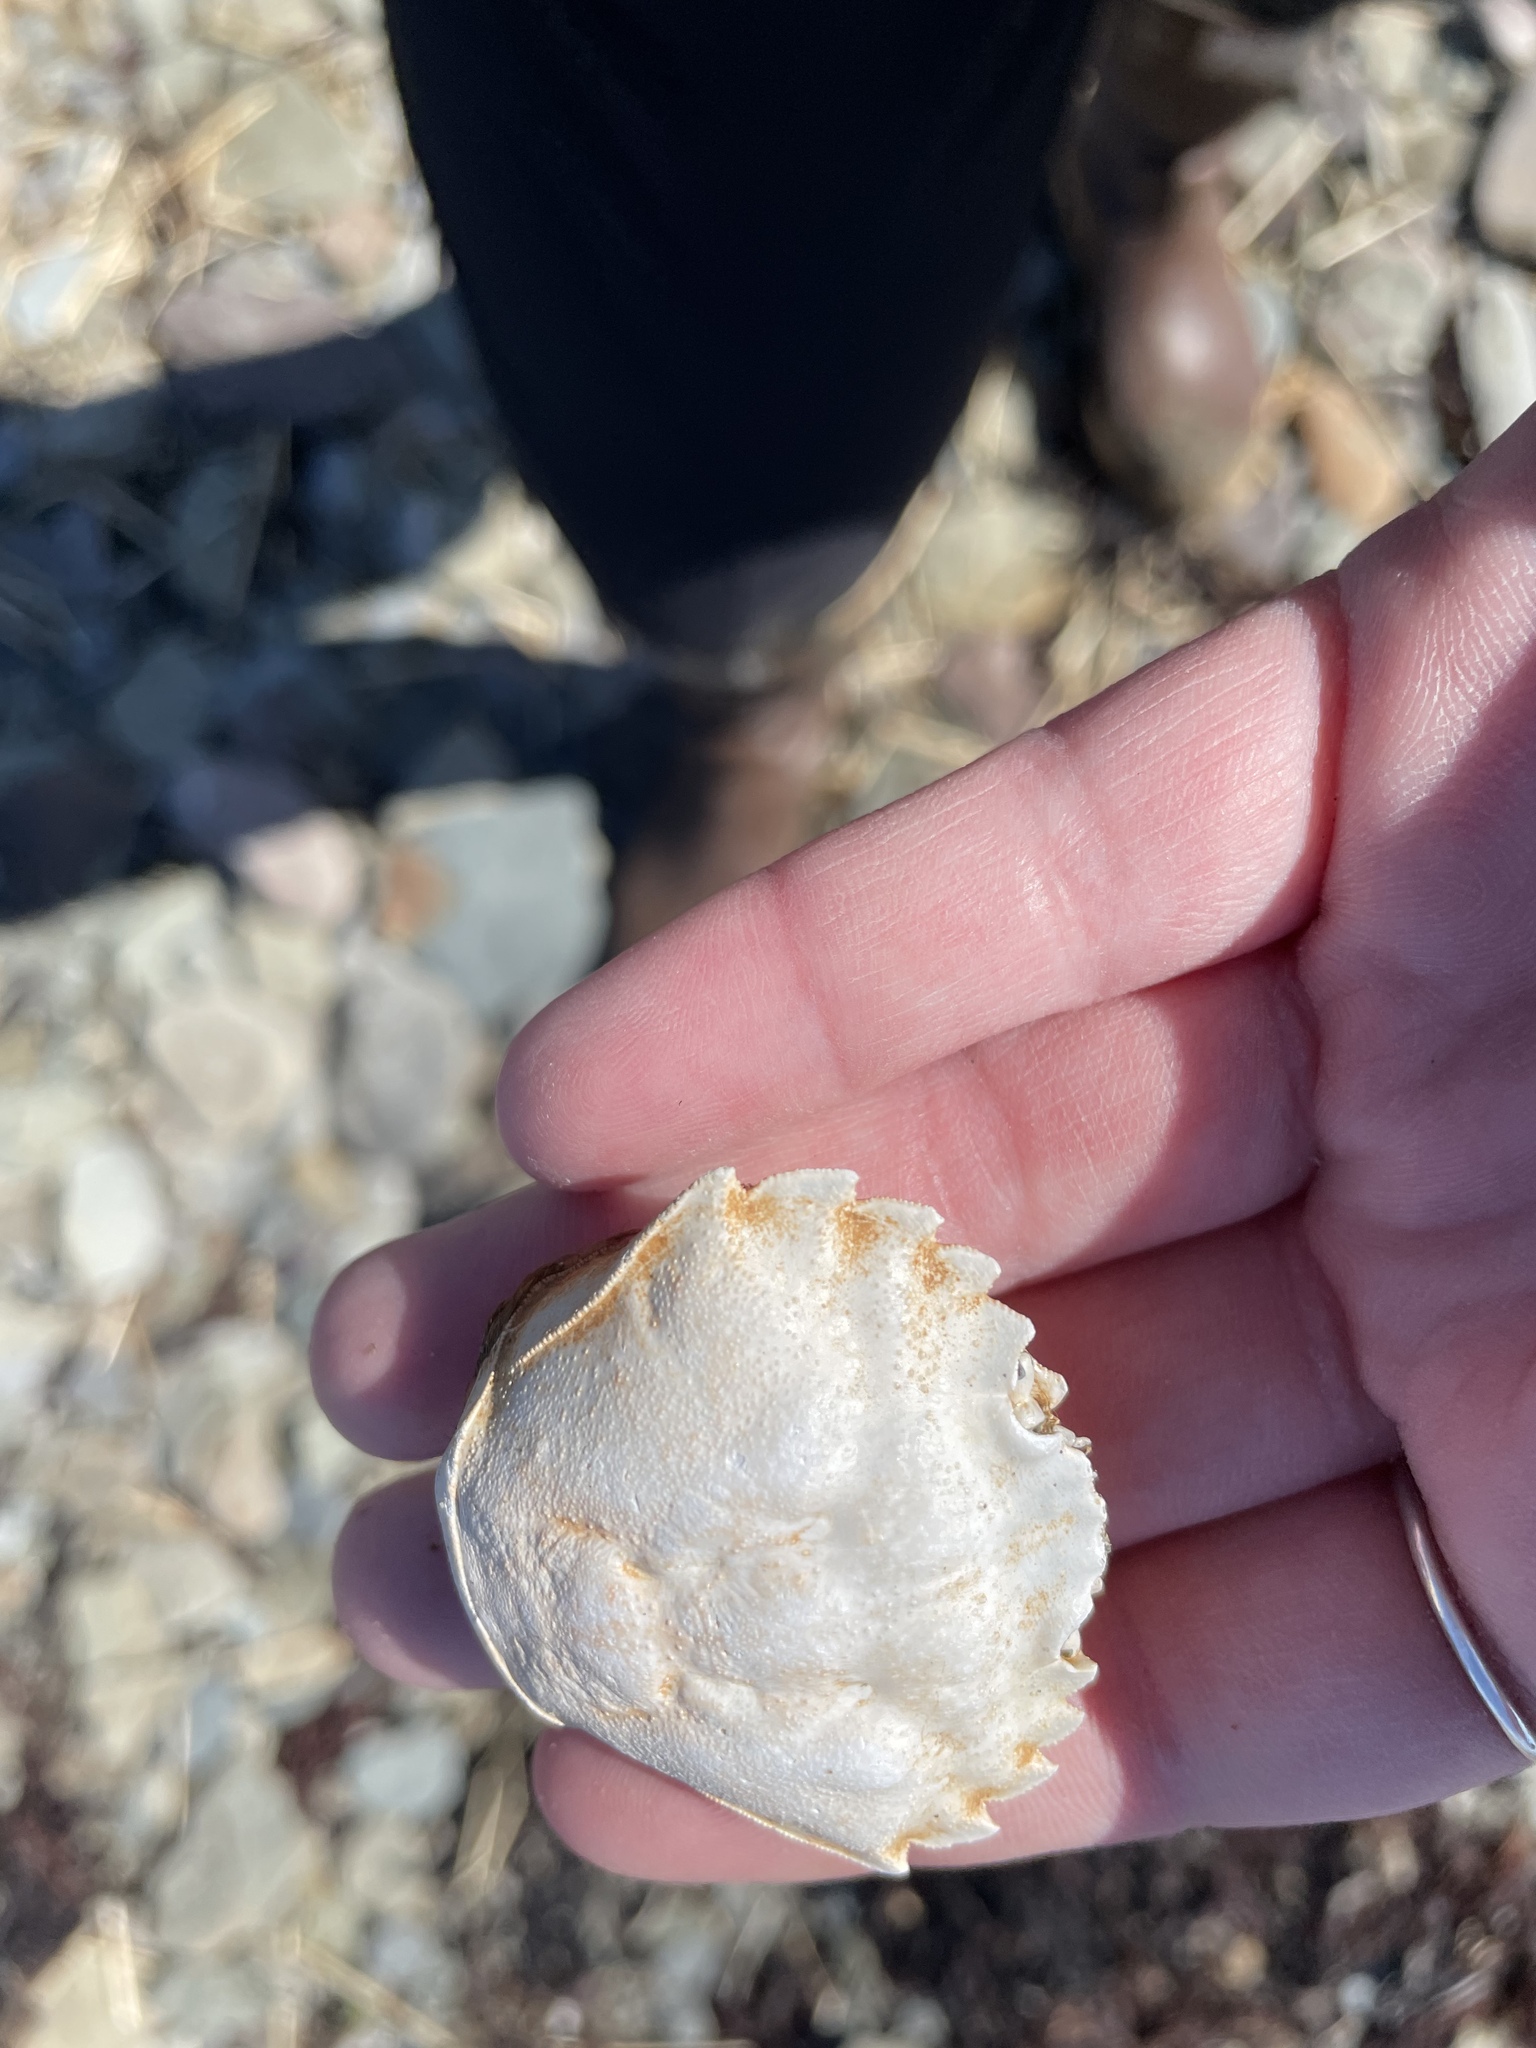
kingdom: Animalia
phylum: Arthropoda
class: Malacostraca
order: Decapoda
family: Carcinidae
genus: Carcinus
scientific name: Carcinus maenas
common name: European green crab
